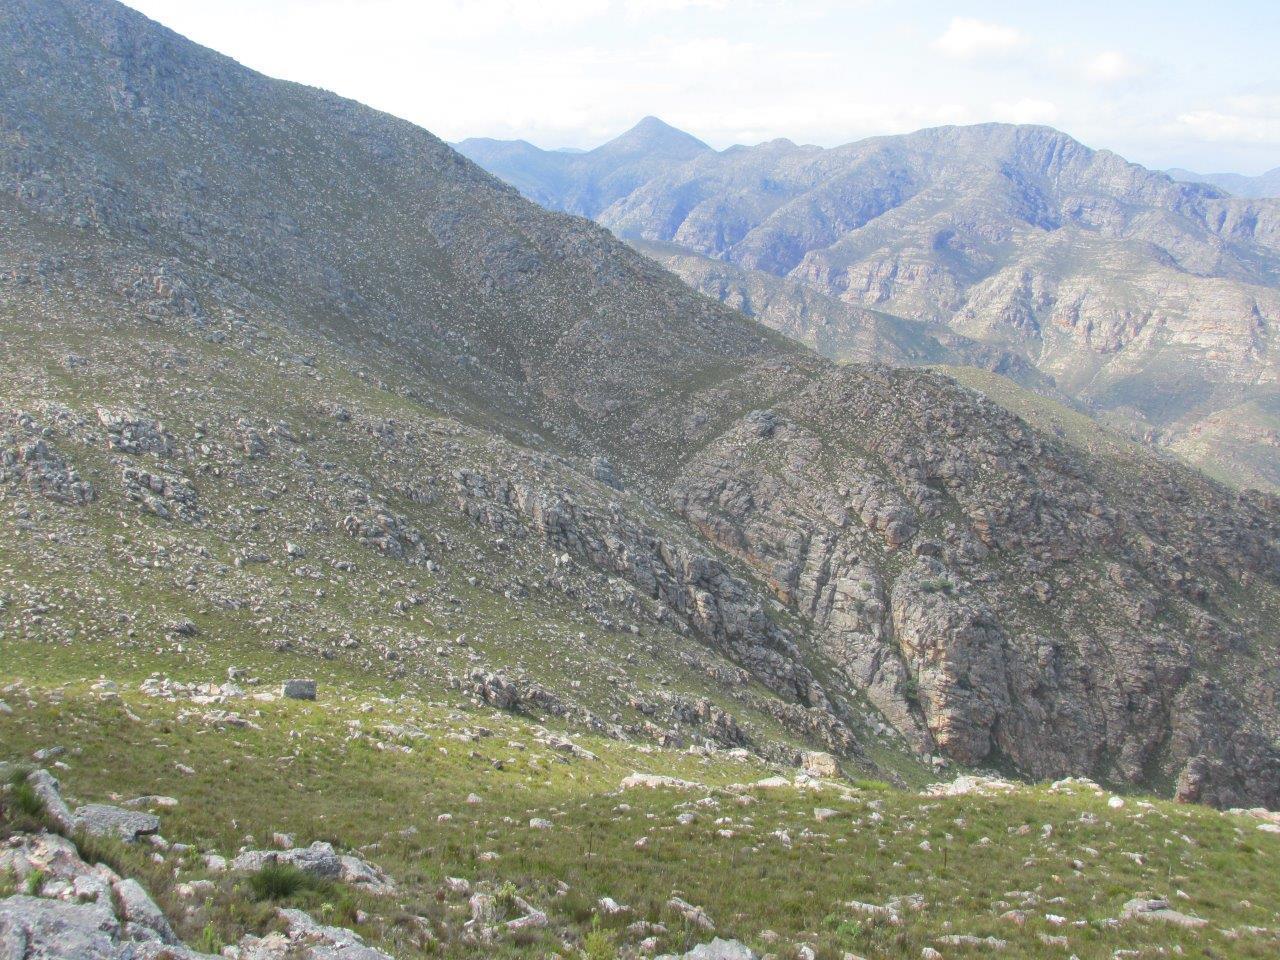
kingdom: Plantae
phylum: Tracheophyta
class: Magnoliopsida
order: Fabales
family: Fabaceae
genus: Indigofera
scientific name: Indigofera
